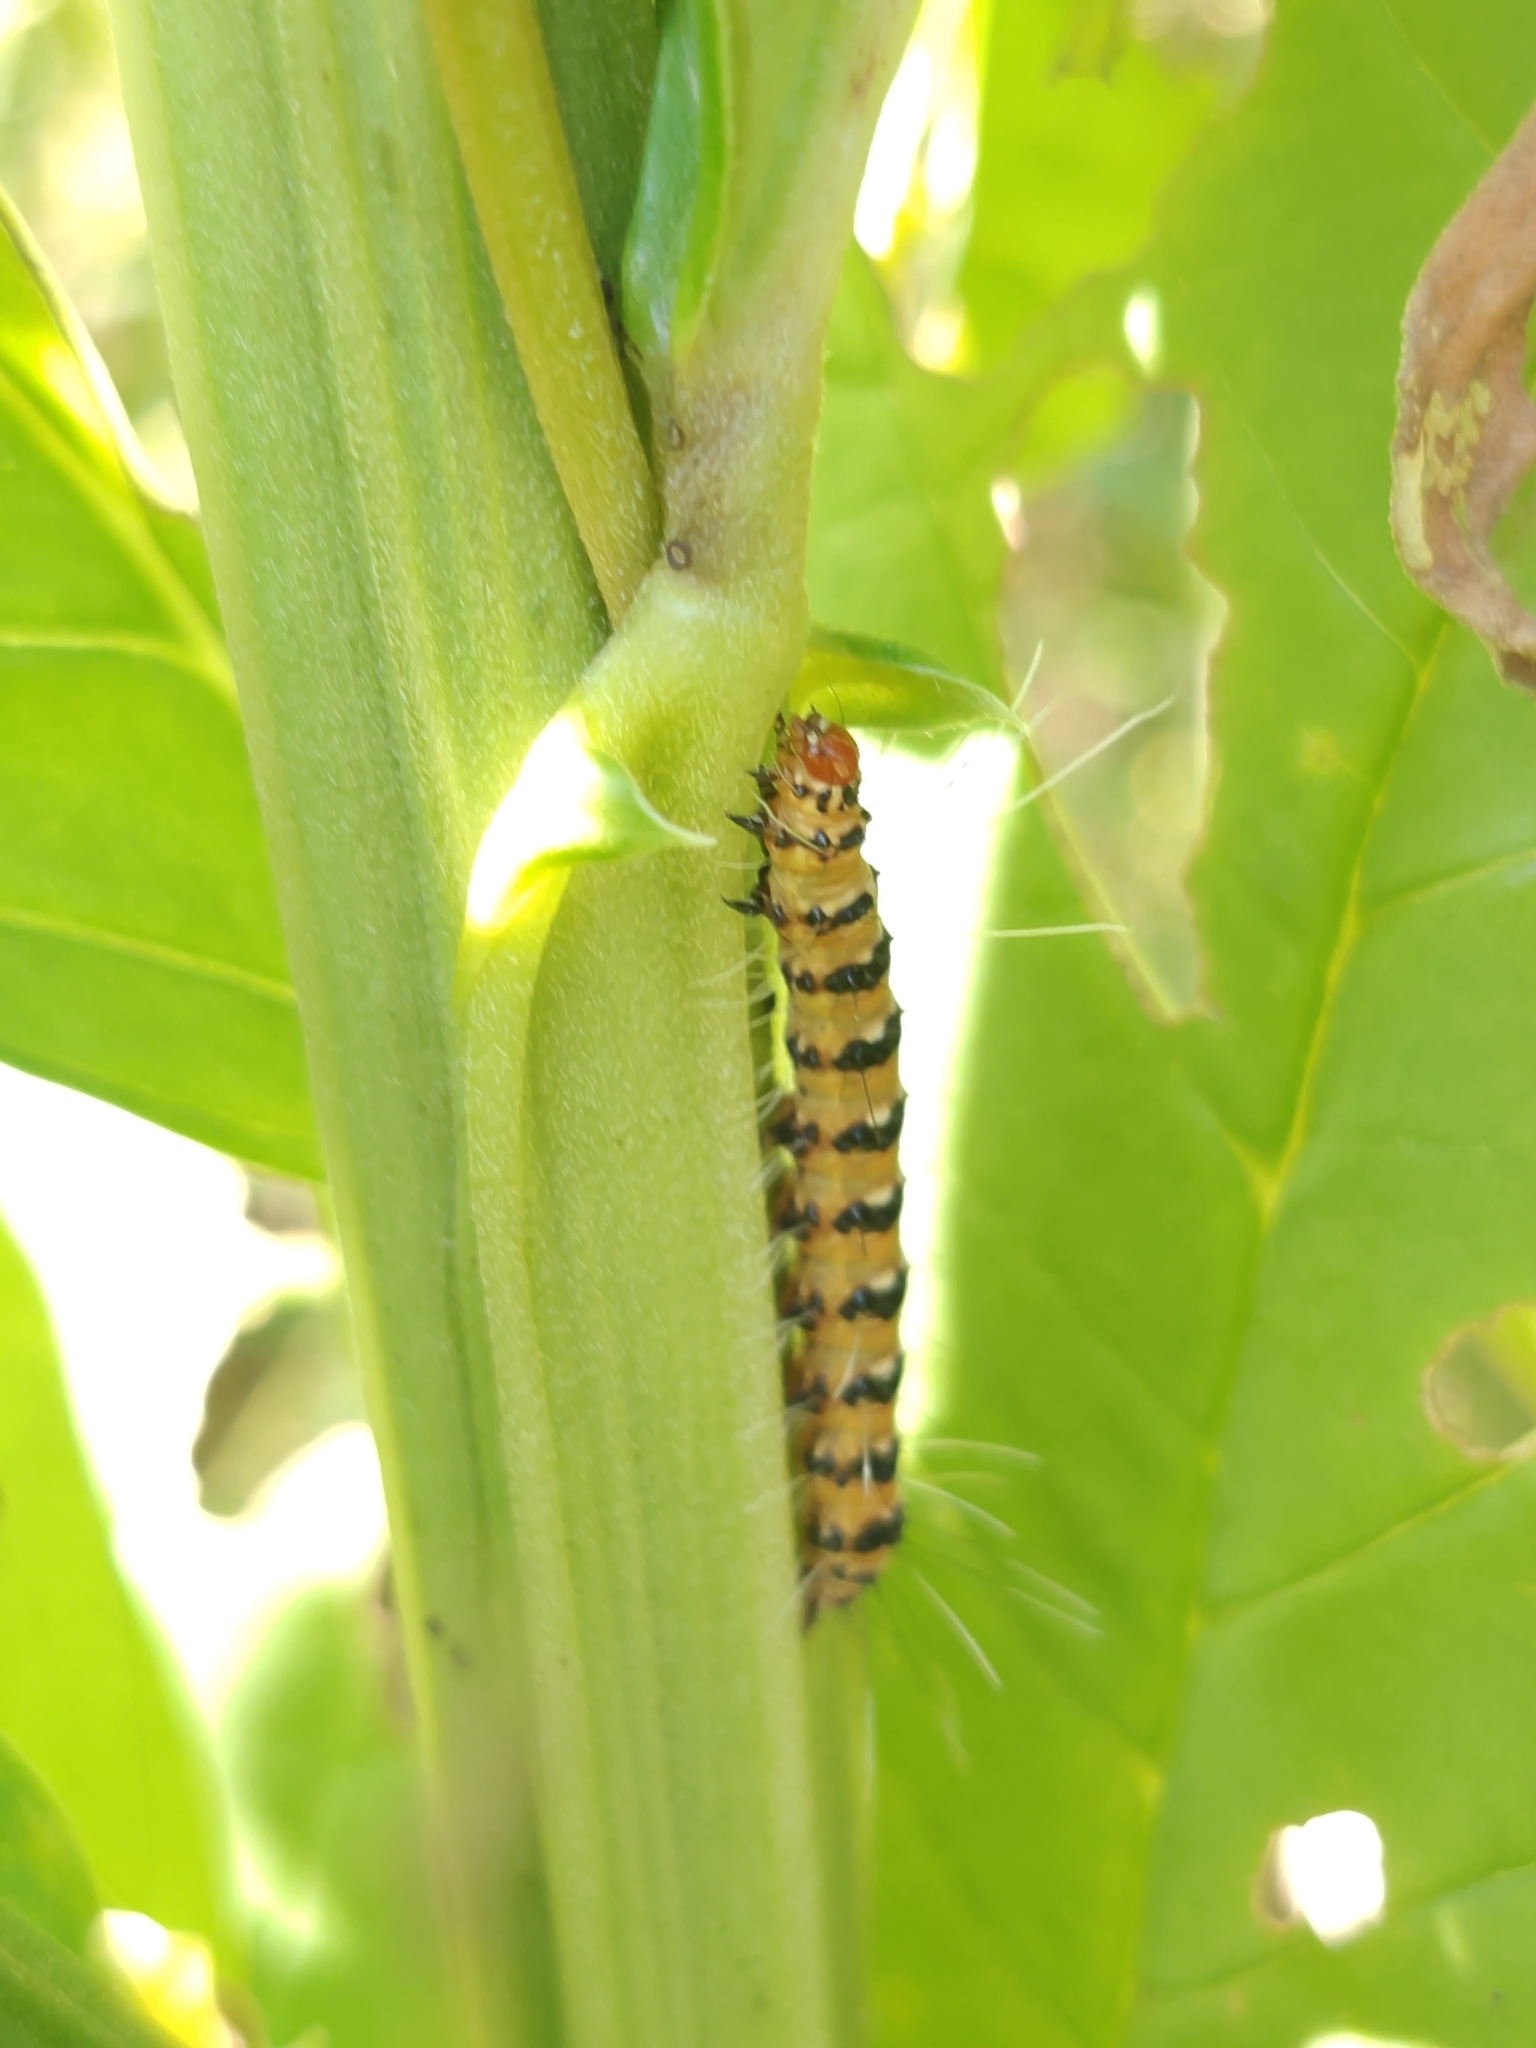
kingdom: Animalia
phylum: Arthropoda
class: Insecta
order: Lepidoptera
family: Erebidae
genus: Utetheisa
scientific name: Utetheisa ornatrix
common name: Beautiful utetheisa
